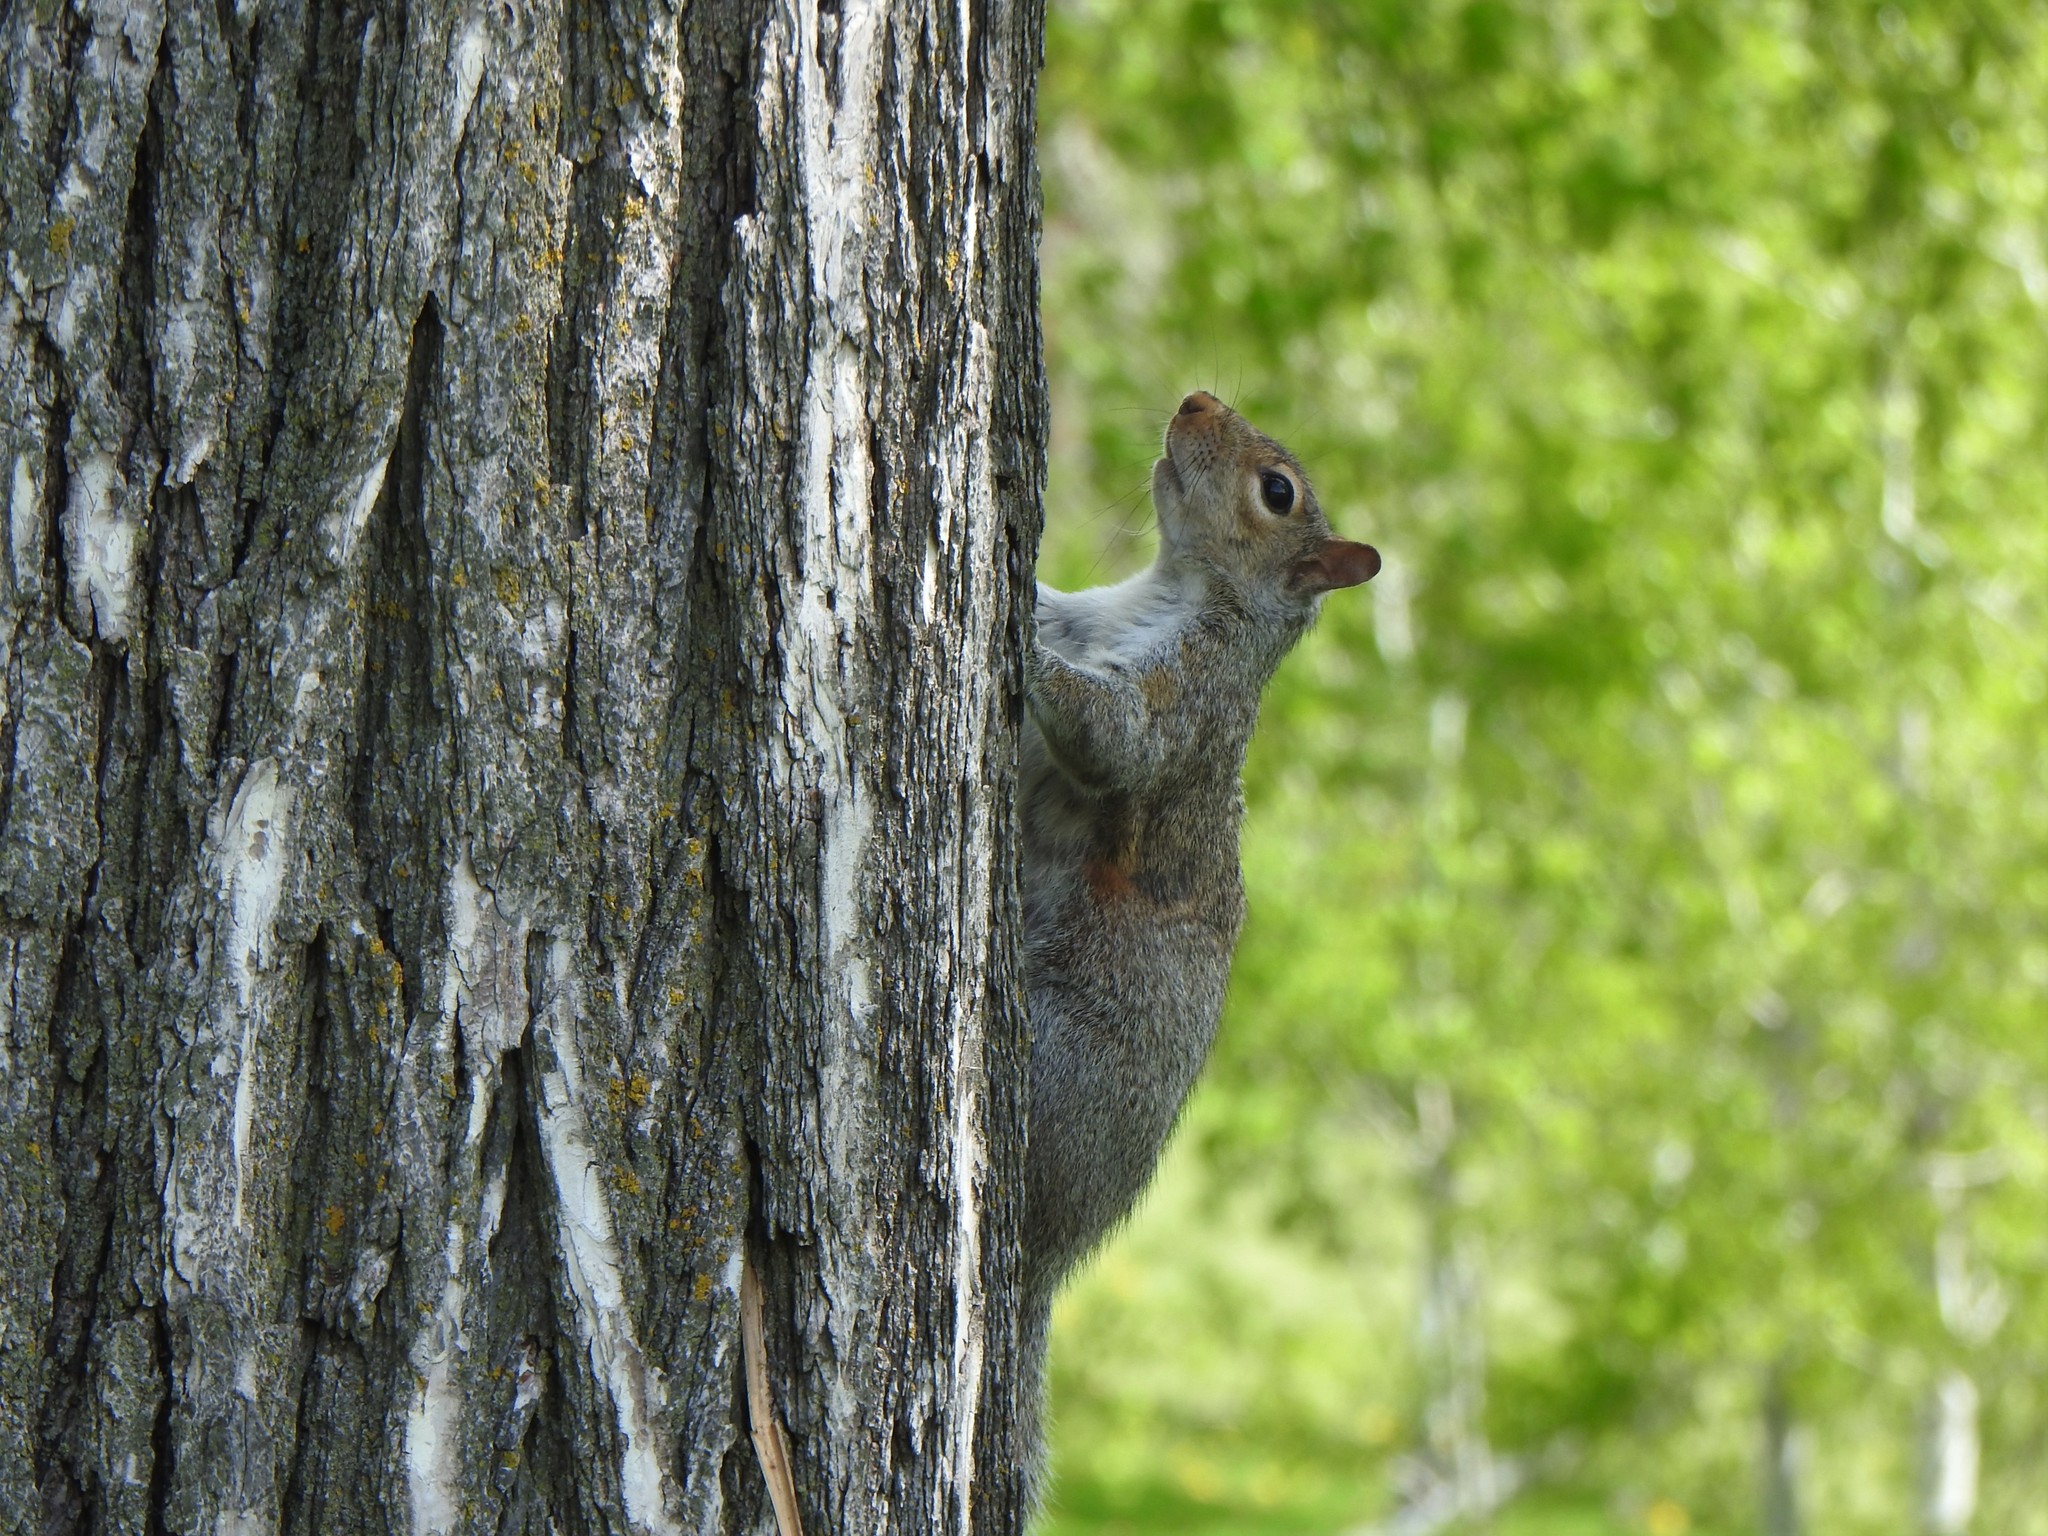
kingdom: Animalia
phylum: Chordata
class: Mammalia
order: Rodentia
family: Sciuridae
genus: Sciurus
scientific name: Sciurus carolinensis
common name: Eastern gray squirrel
